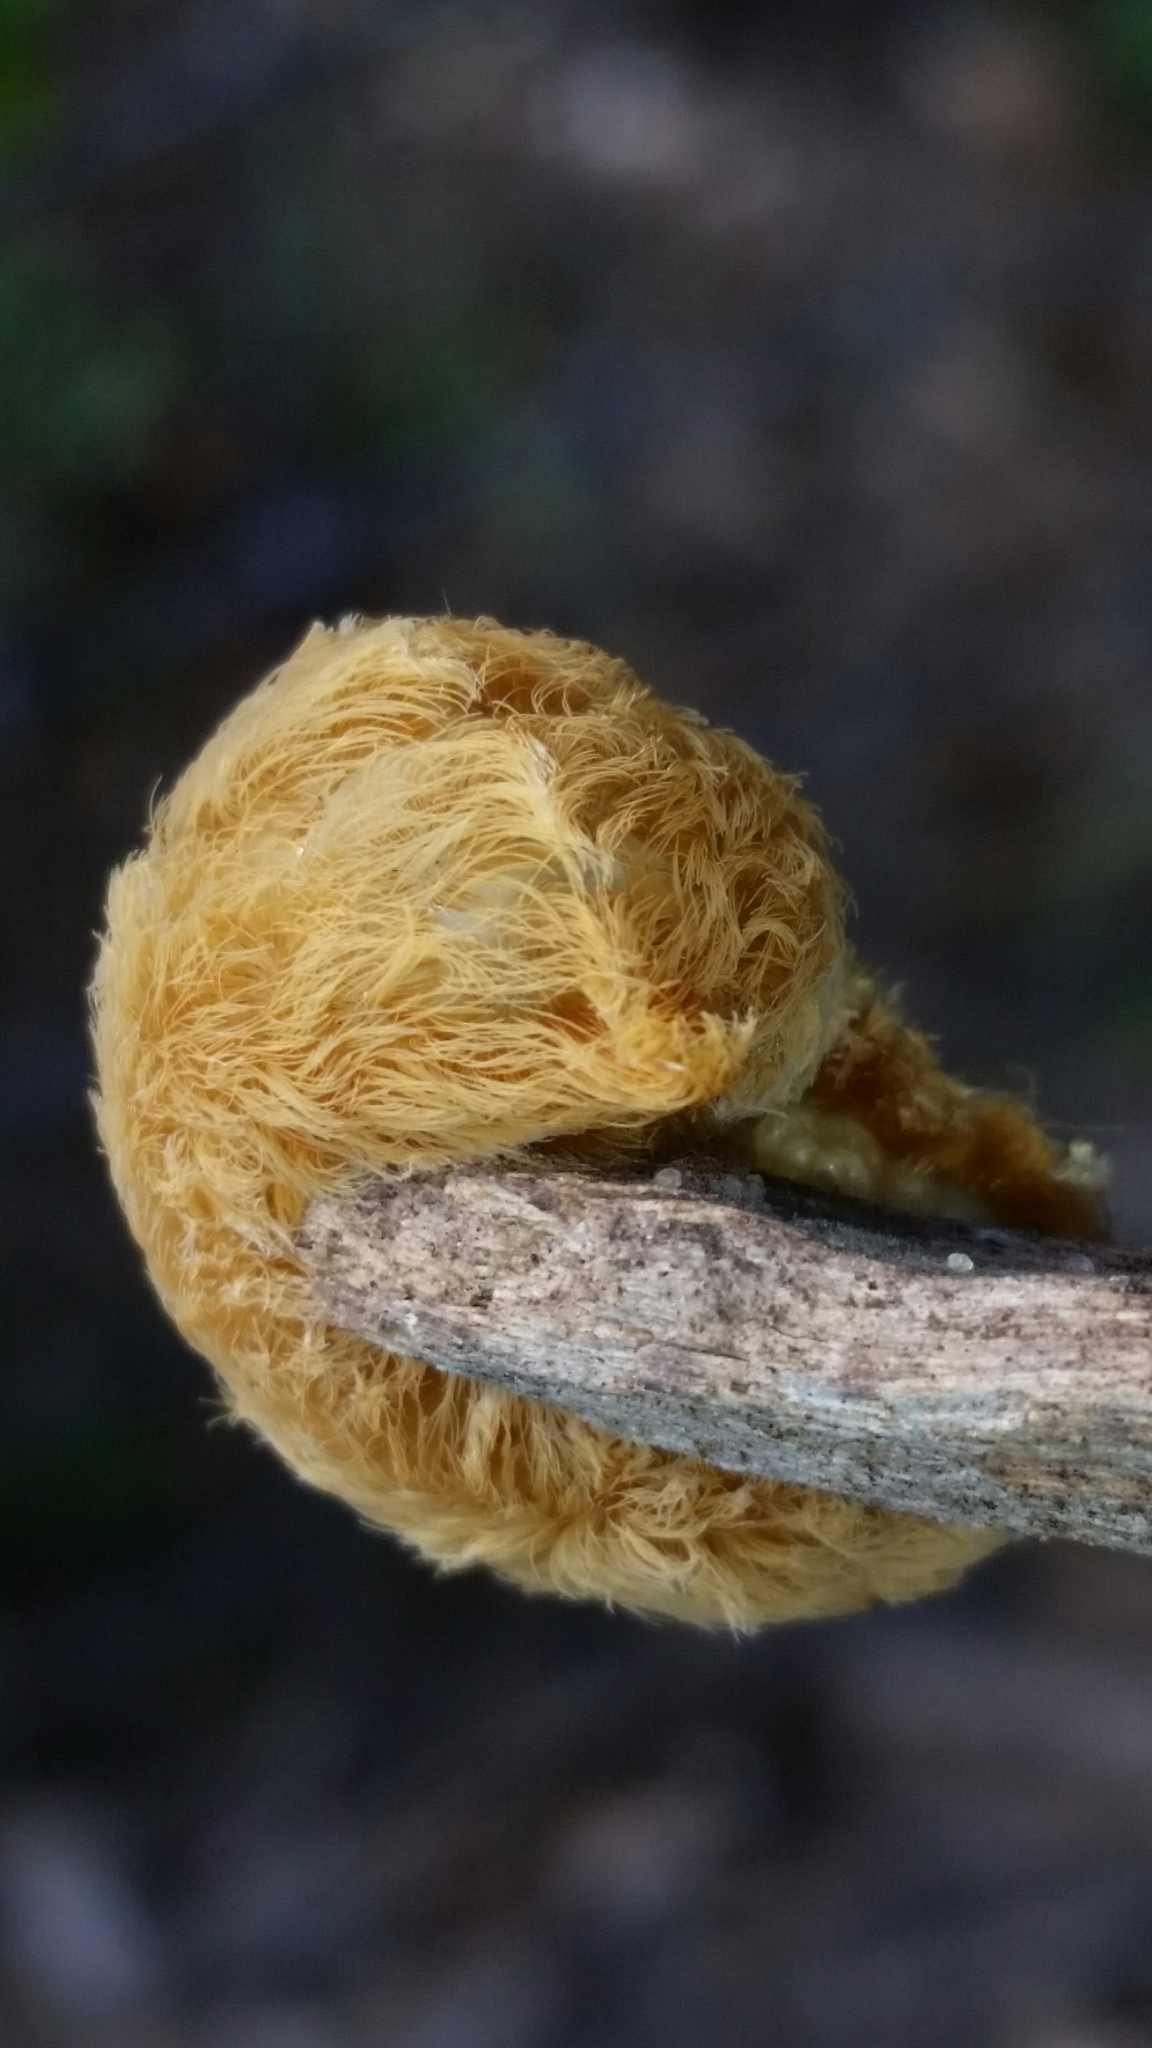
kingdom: Animalia
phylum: Arthropoda
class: Insecta
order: Lepidoptera
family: Megalopygidae
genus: Megalopyge
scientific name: Megalopyge opercularis
